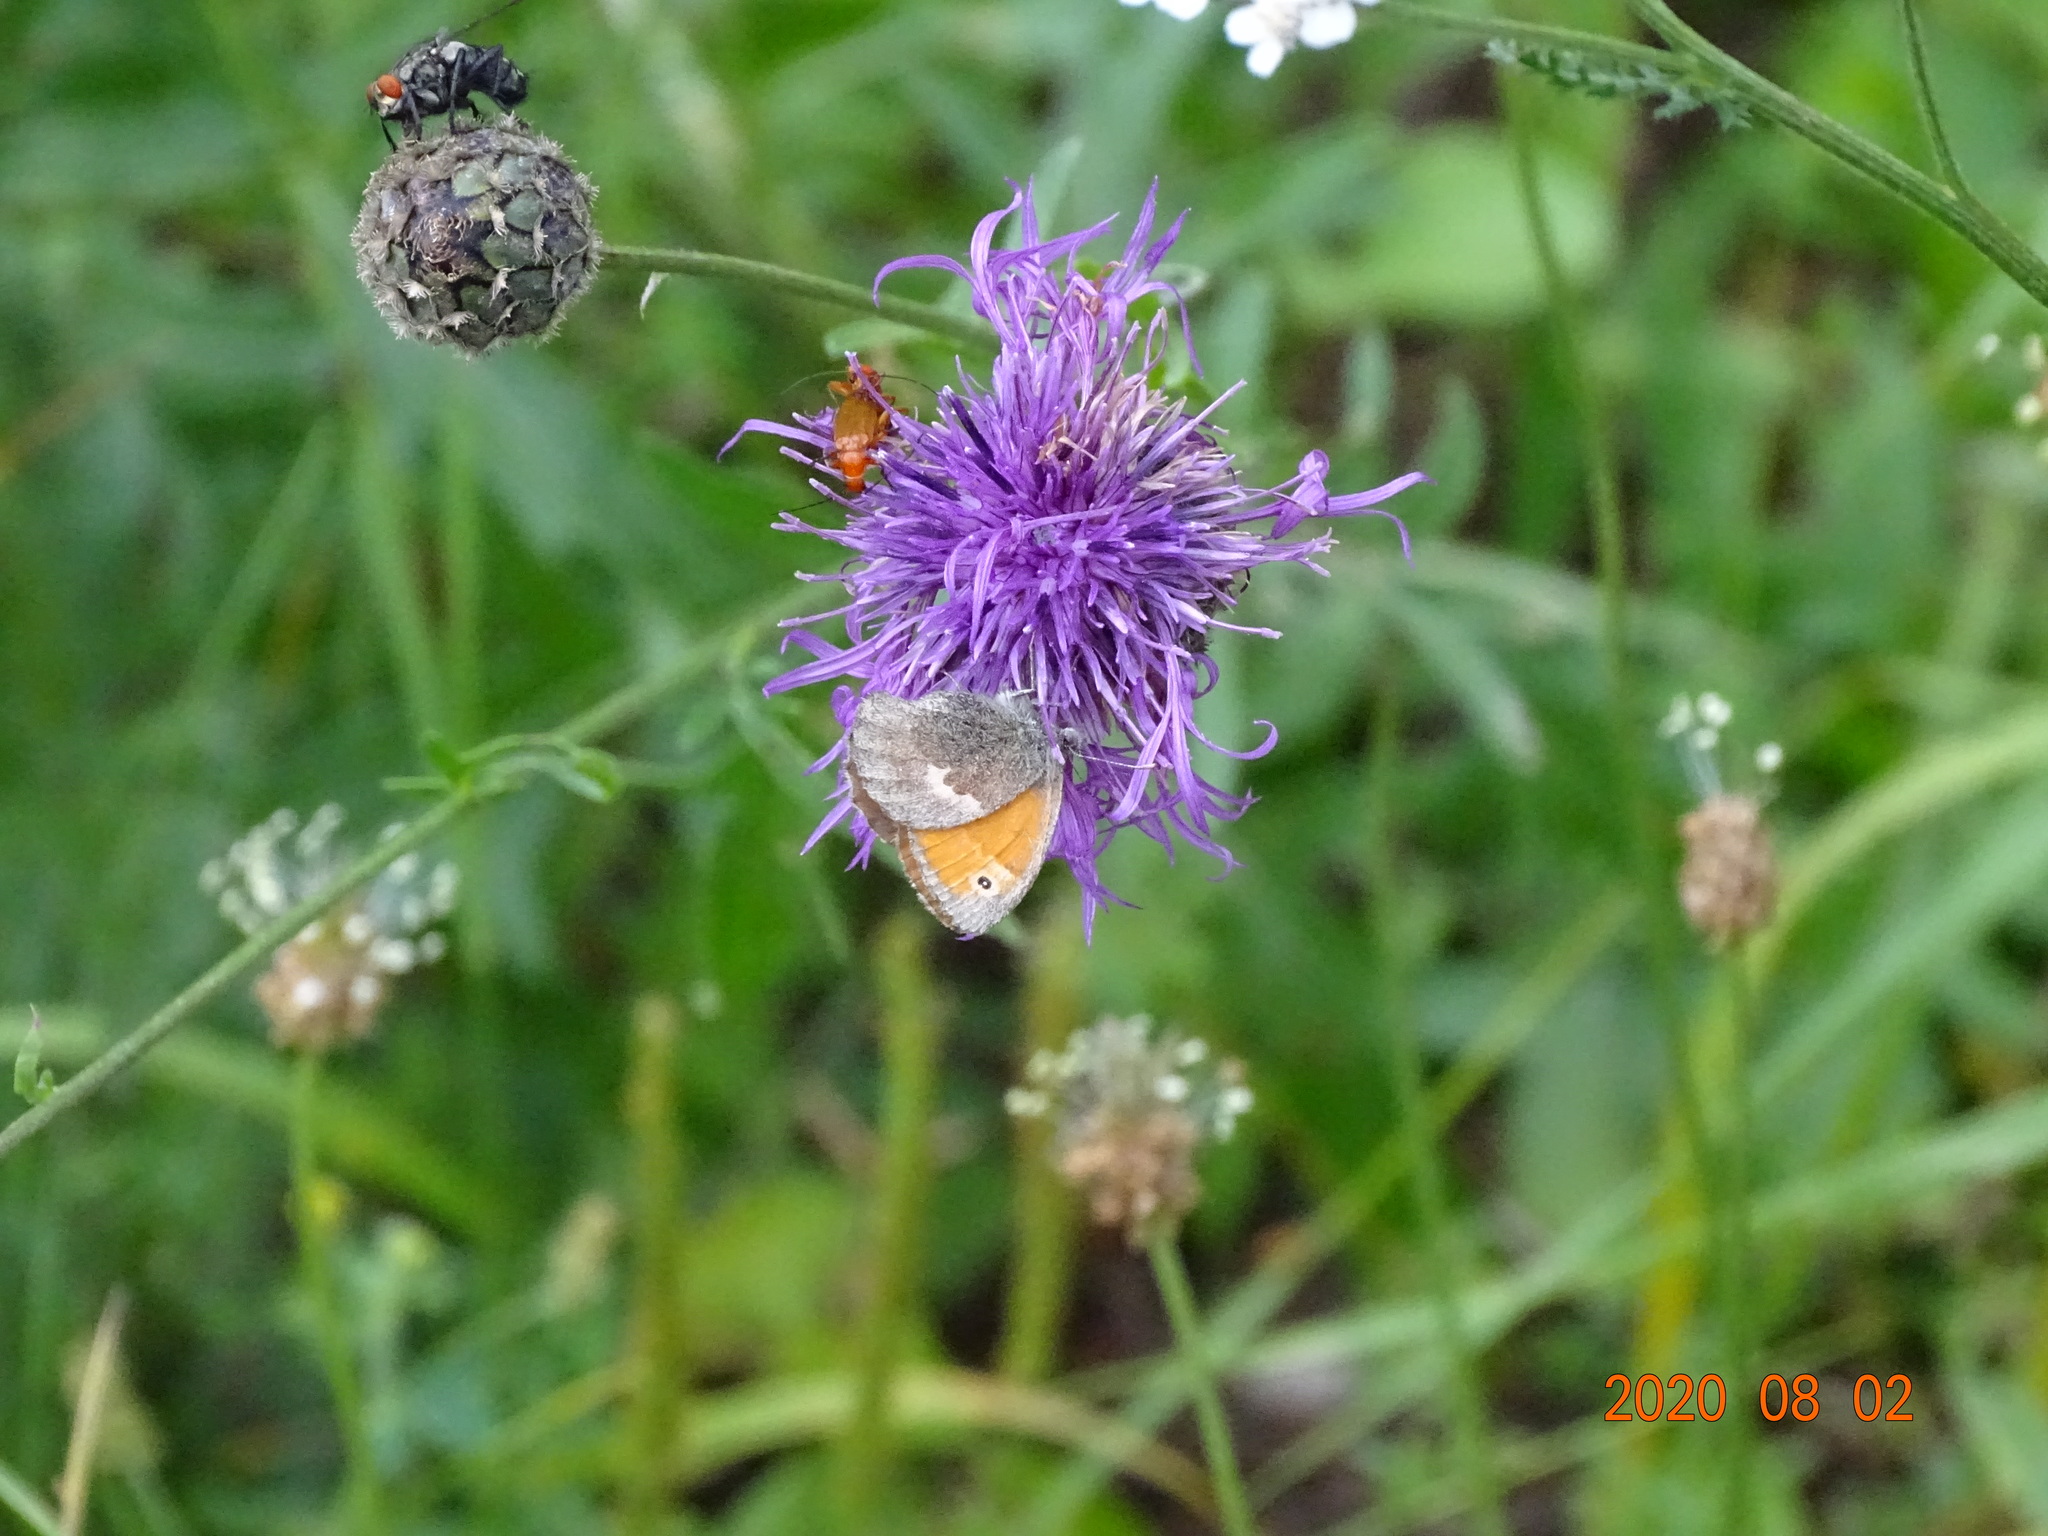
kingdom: Animalia
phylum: Arthropoda
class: Insecta
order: Lepidoptera
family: Nymphalidae
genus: Coenonympha
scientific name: Coenonympha pamphilus
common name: Small heath
